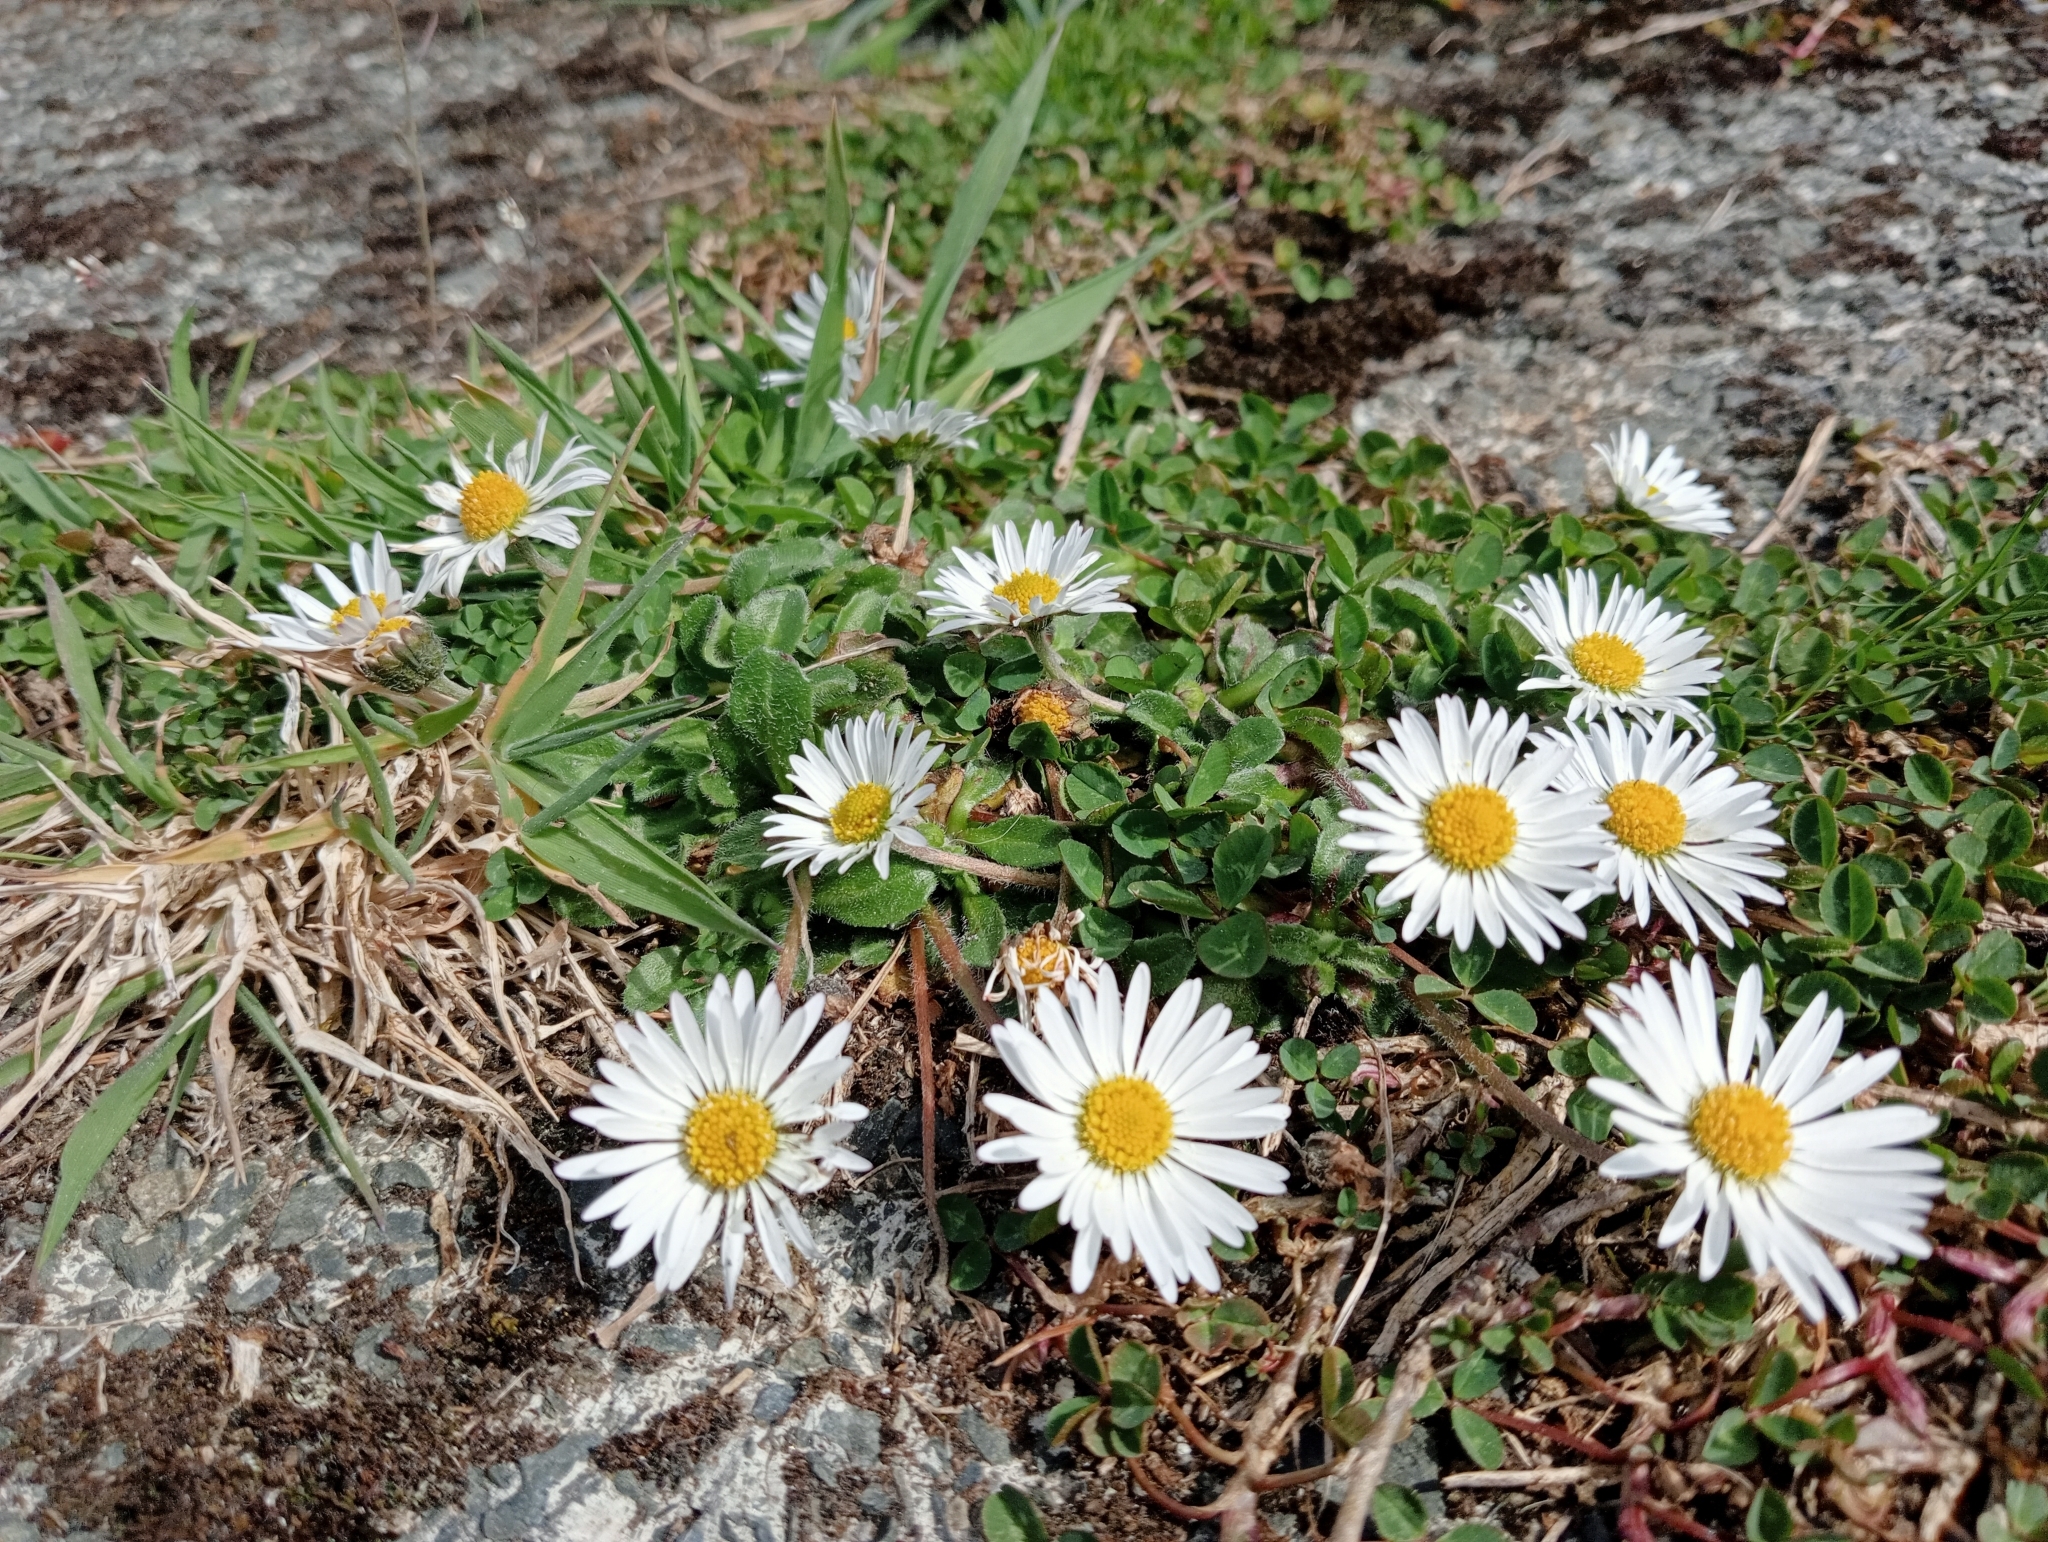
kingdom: Plantae
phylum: Tracheophyta
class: Magnoliopsida
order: Asterales
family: Asteraceae
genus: Bellis
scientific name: Bellis perennis
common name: Lawndaisy
